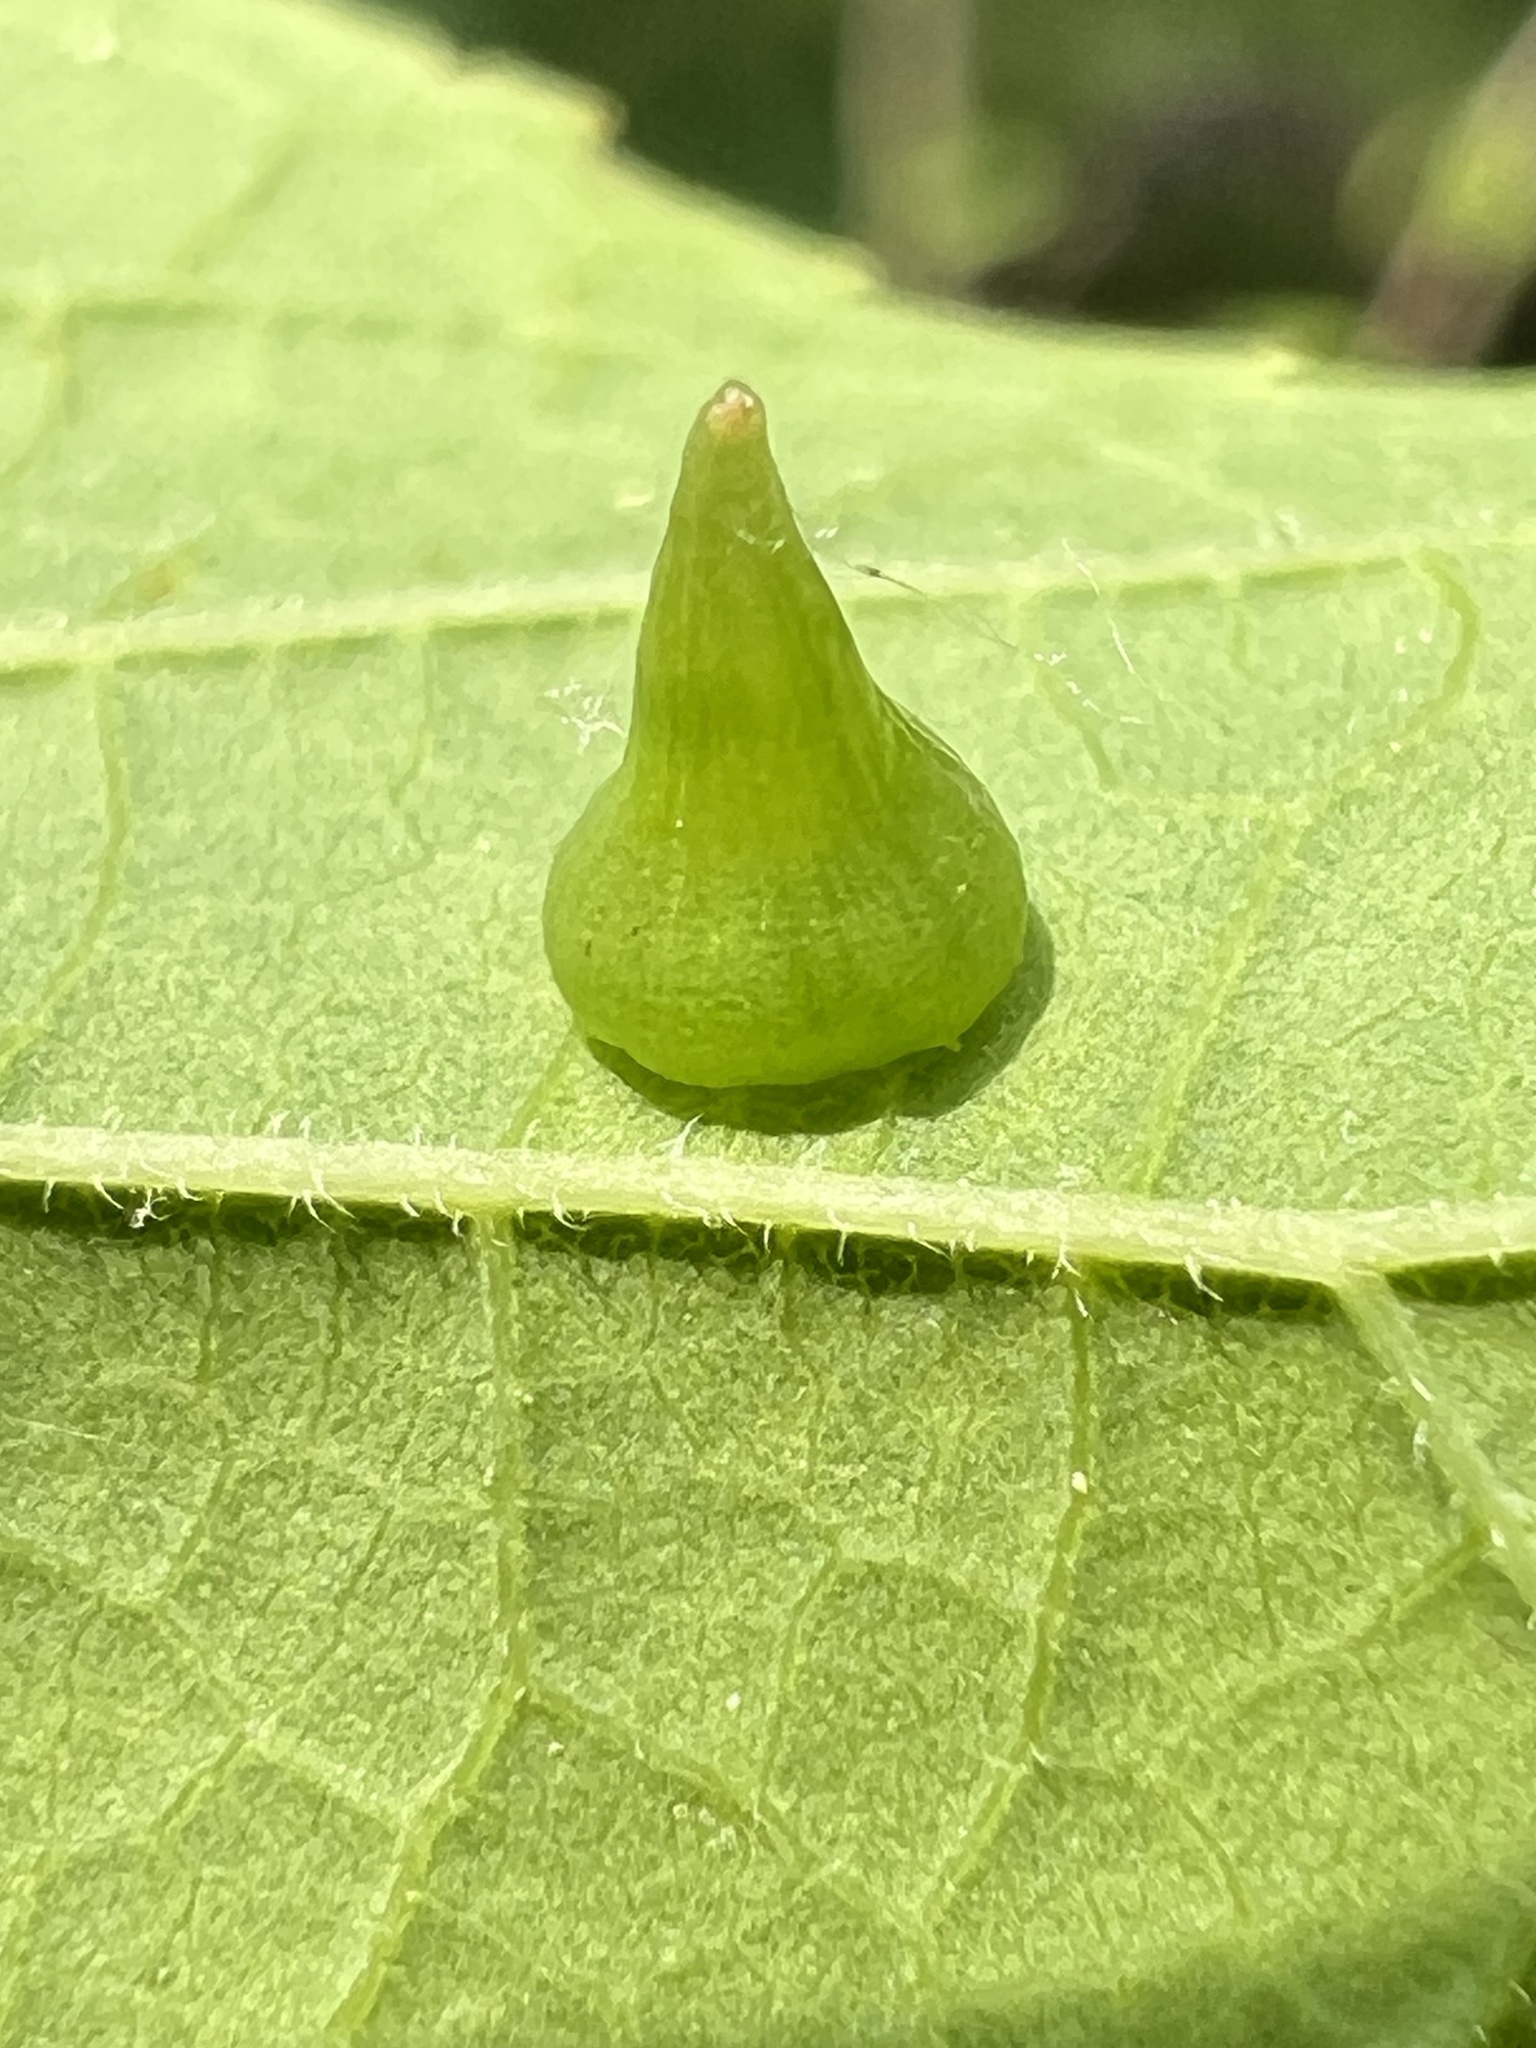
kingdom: Animalia
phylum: Arthropoda
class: Insecta
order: Diptera
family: Cecidomyiidae
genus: Celticecis
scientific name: Celticecis spiniformis
